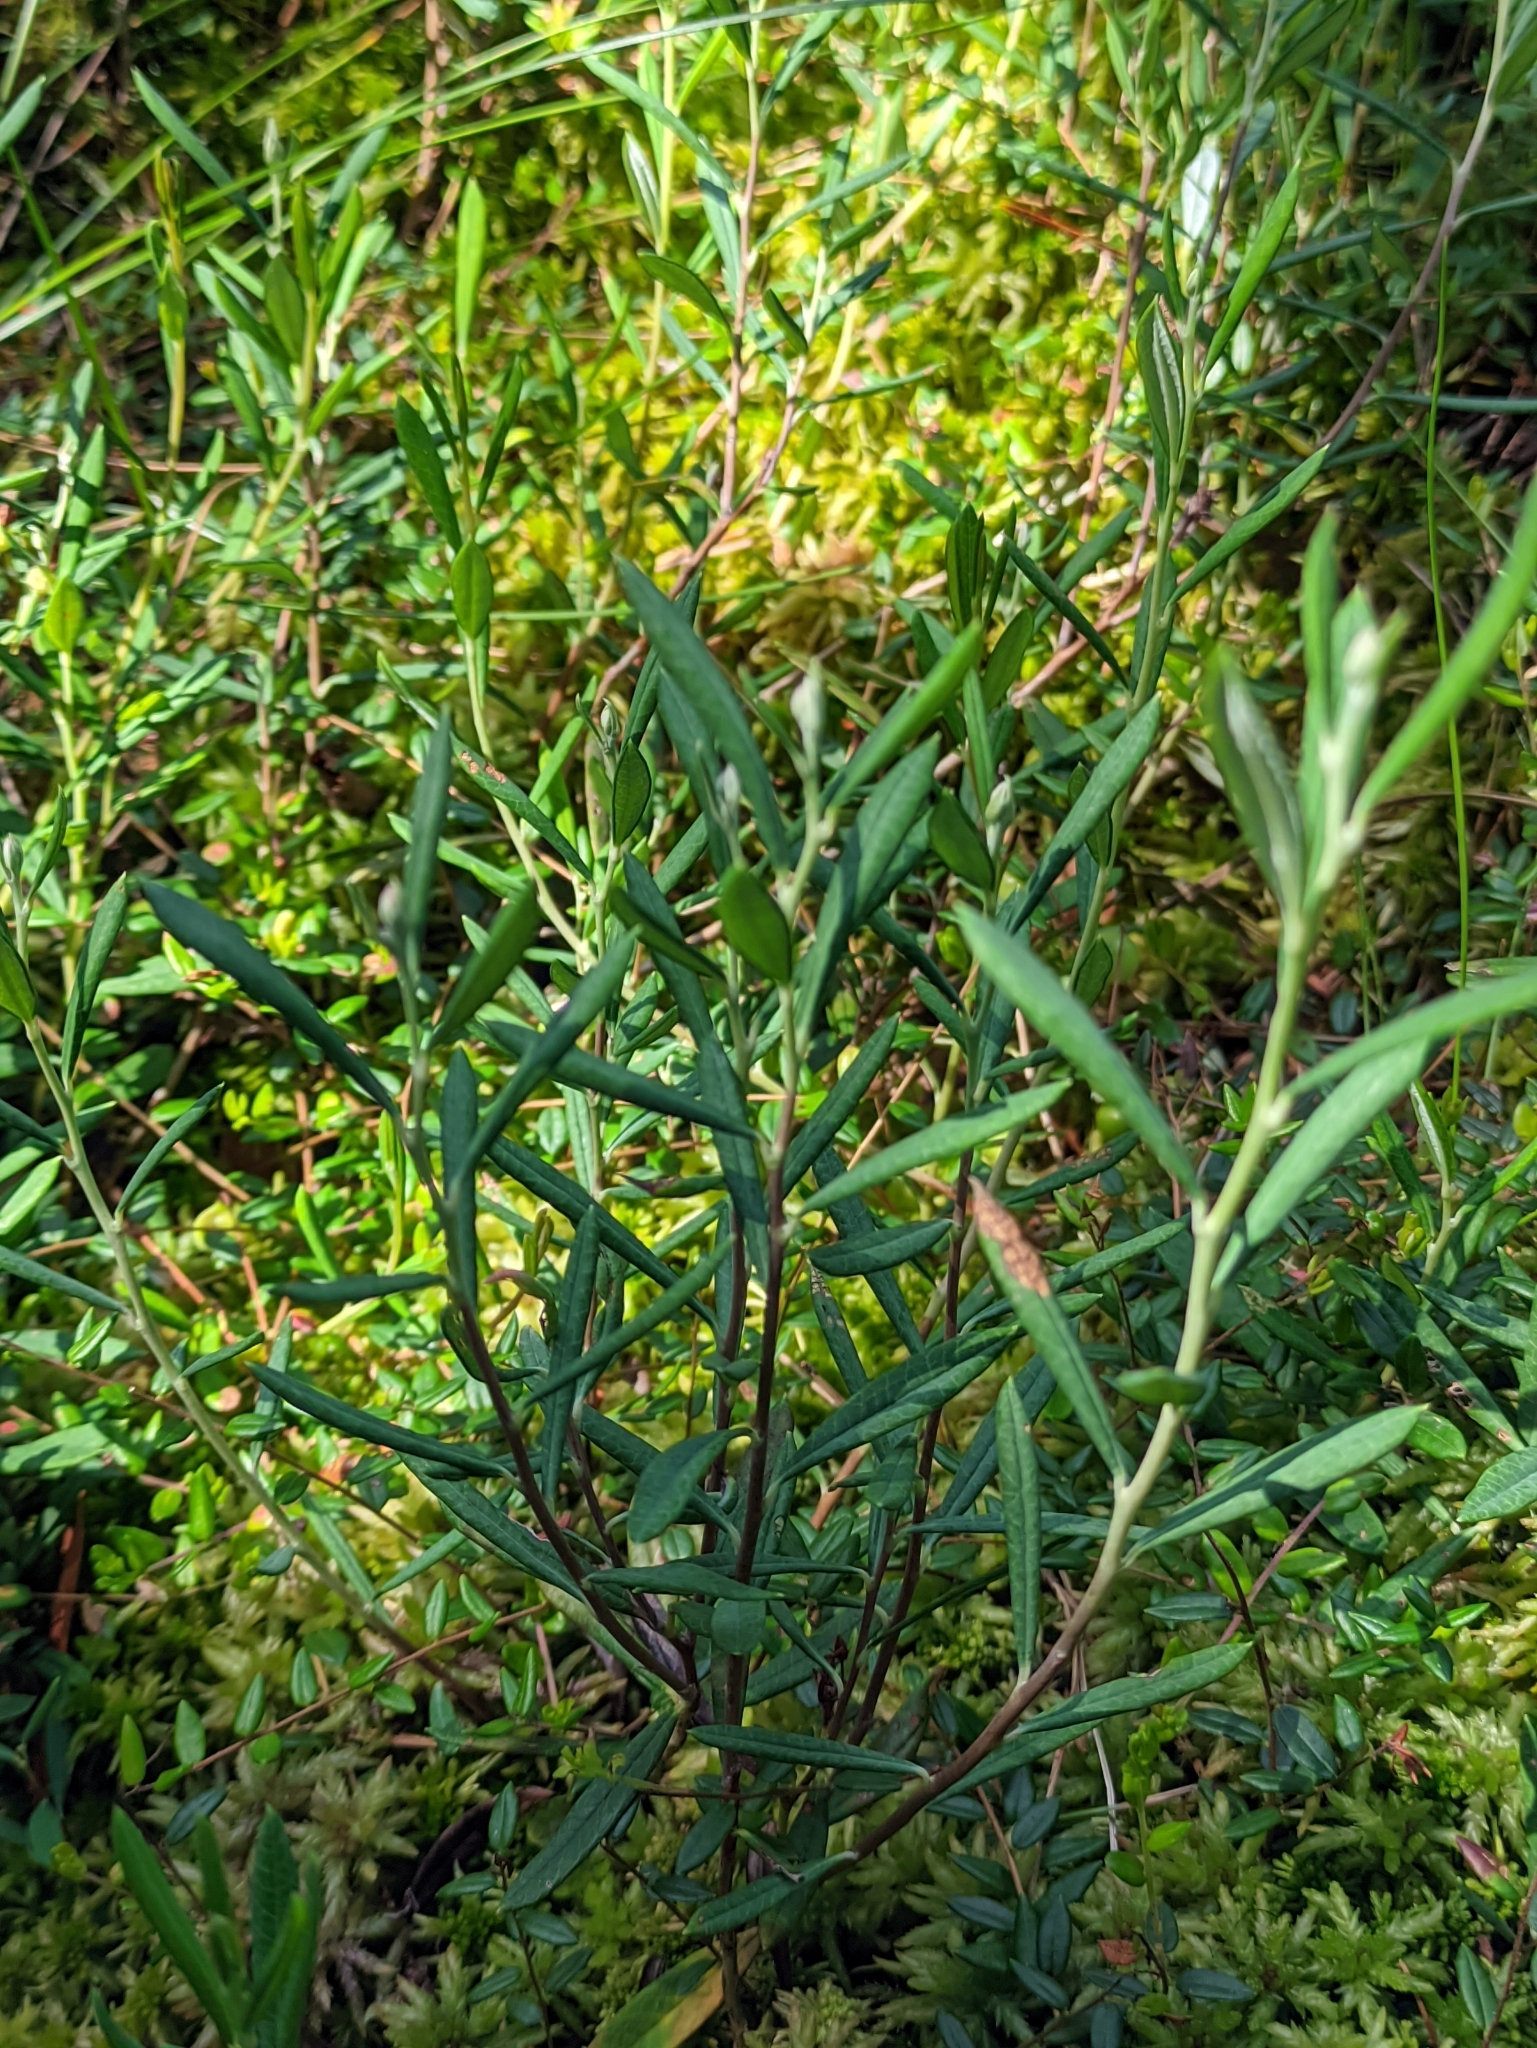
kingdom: Plantae
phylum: Tracheophyta
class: Magnoliopsida
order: Ericales
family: Ericaceae
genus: Andromeda
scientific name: Andromeda polifolia
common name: Bog-rosemary
